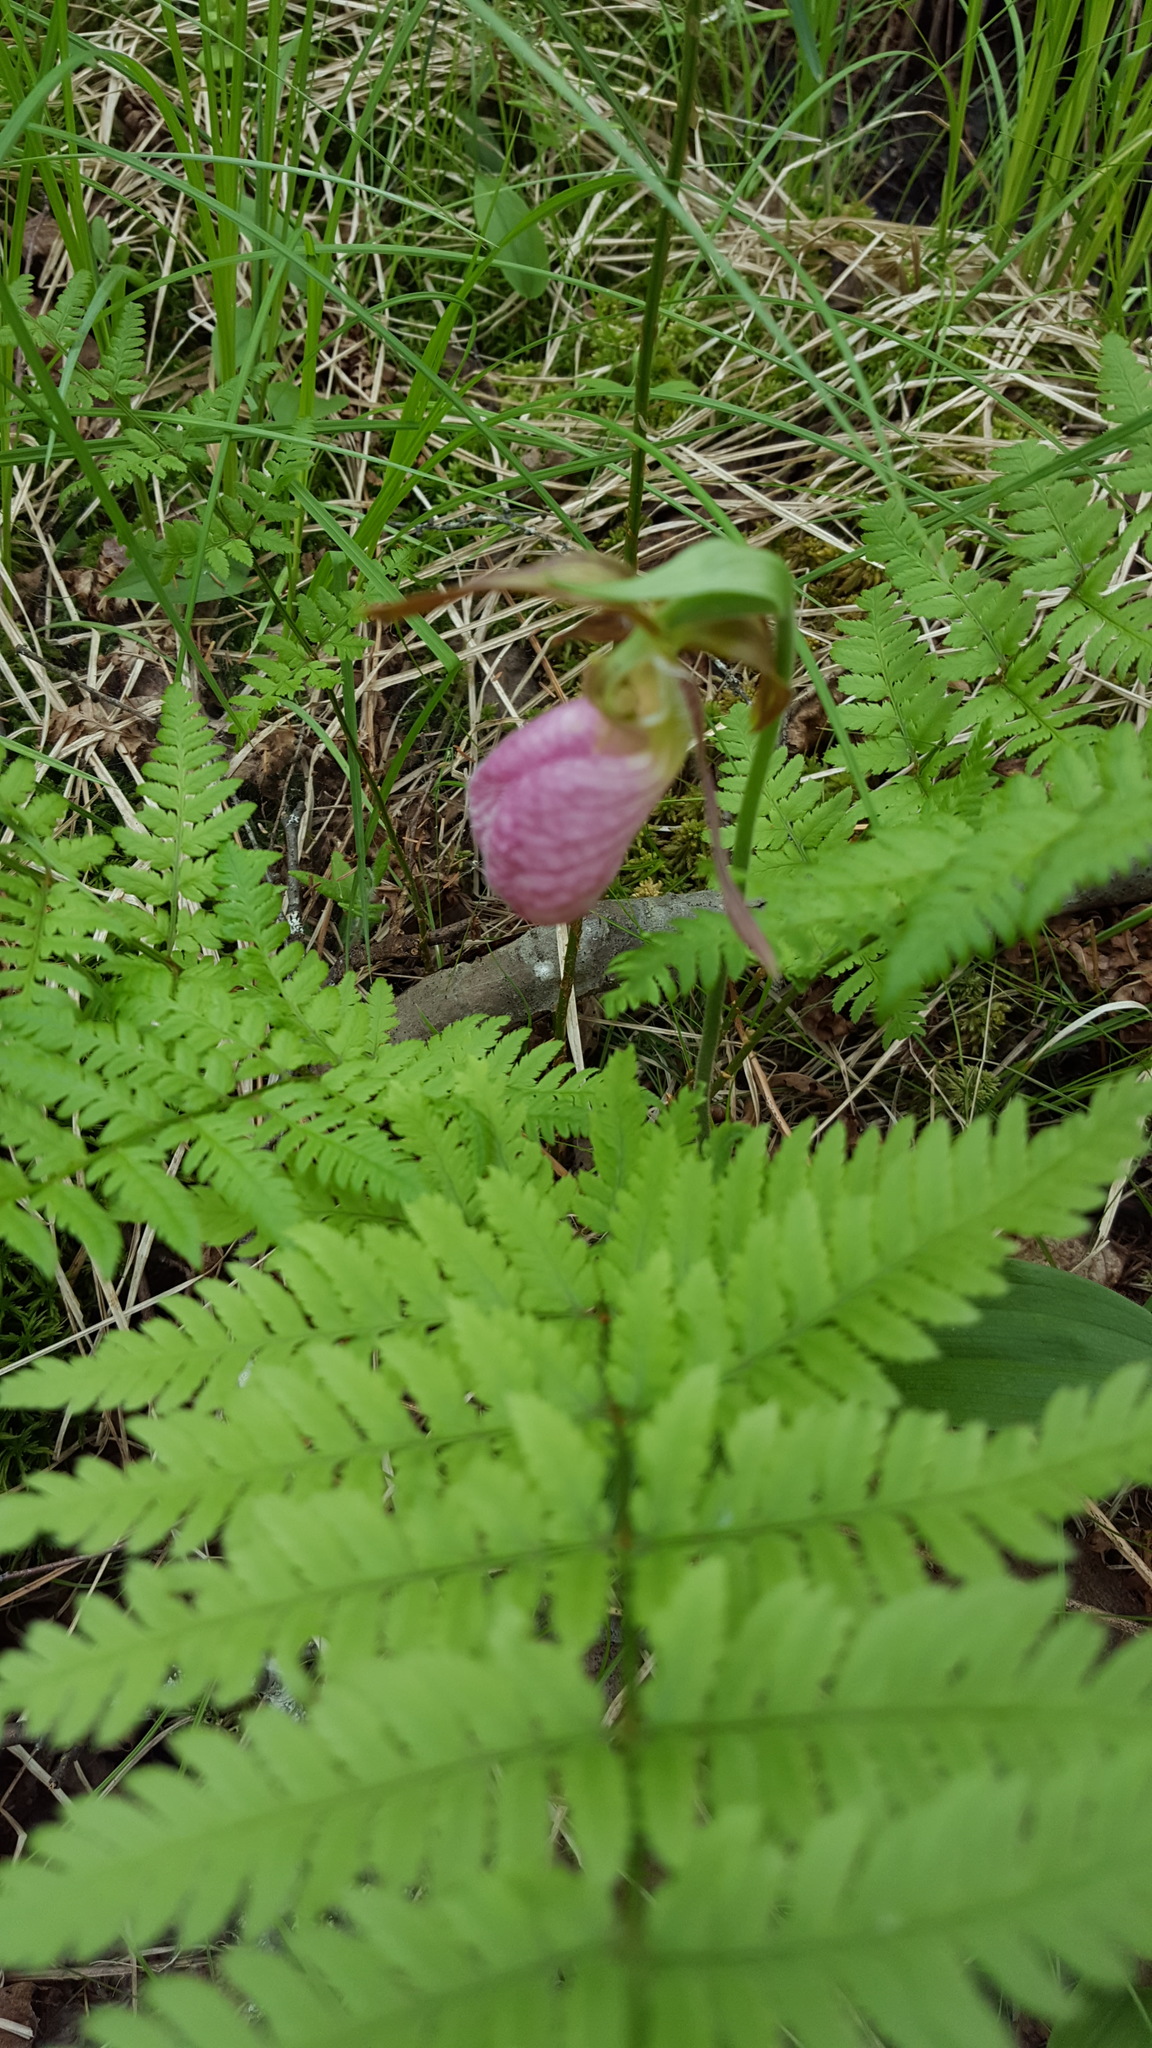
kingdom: Plantae
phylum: Tracheophyta
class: Liliopsida
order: Asparagales
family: Orchidaceae
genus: Cypripedium
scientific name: Cypripedium acaule
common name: Pink lady's-slipper
